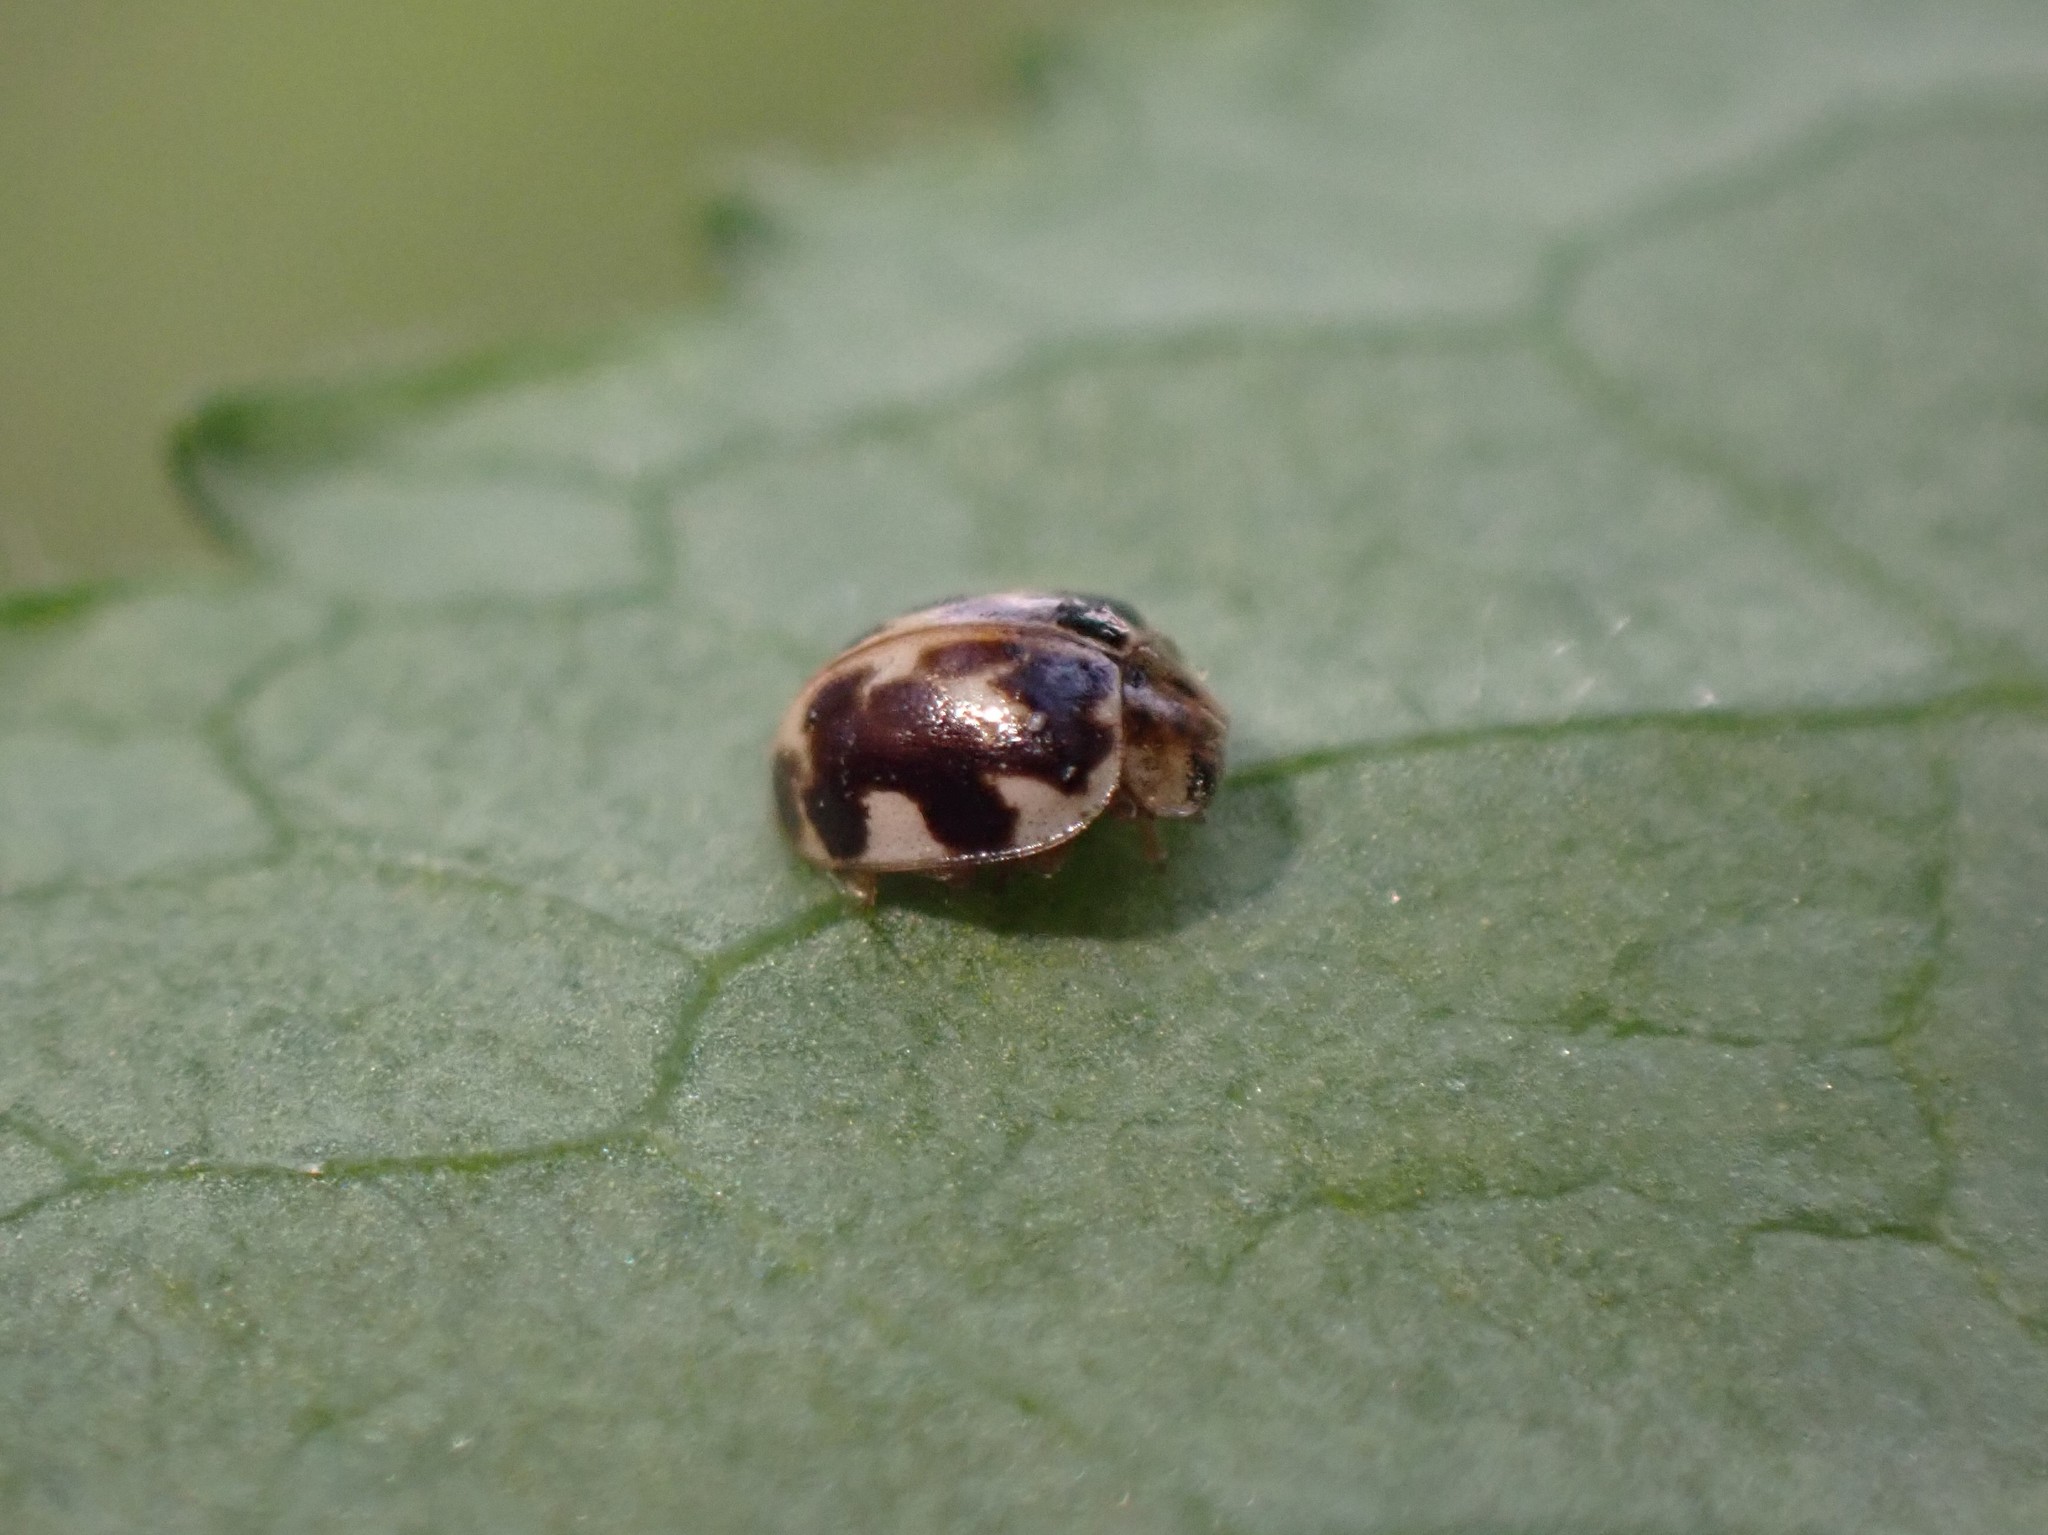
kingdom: Animalia
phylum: Arthropoda
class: Insecta
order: Coleoptera
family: Coccinellidae
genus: Psyllobora
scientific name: Psyllobora vigintimaculata
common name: Ladybird beetle
